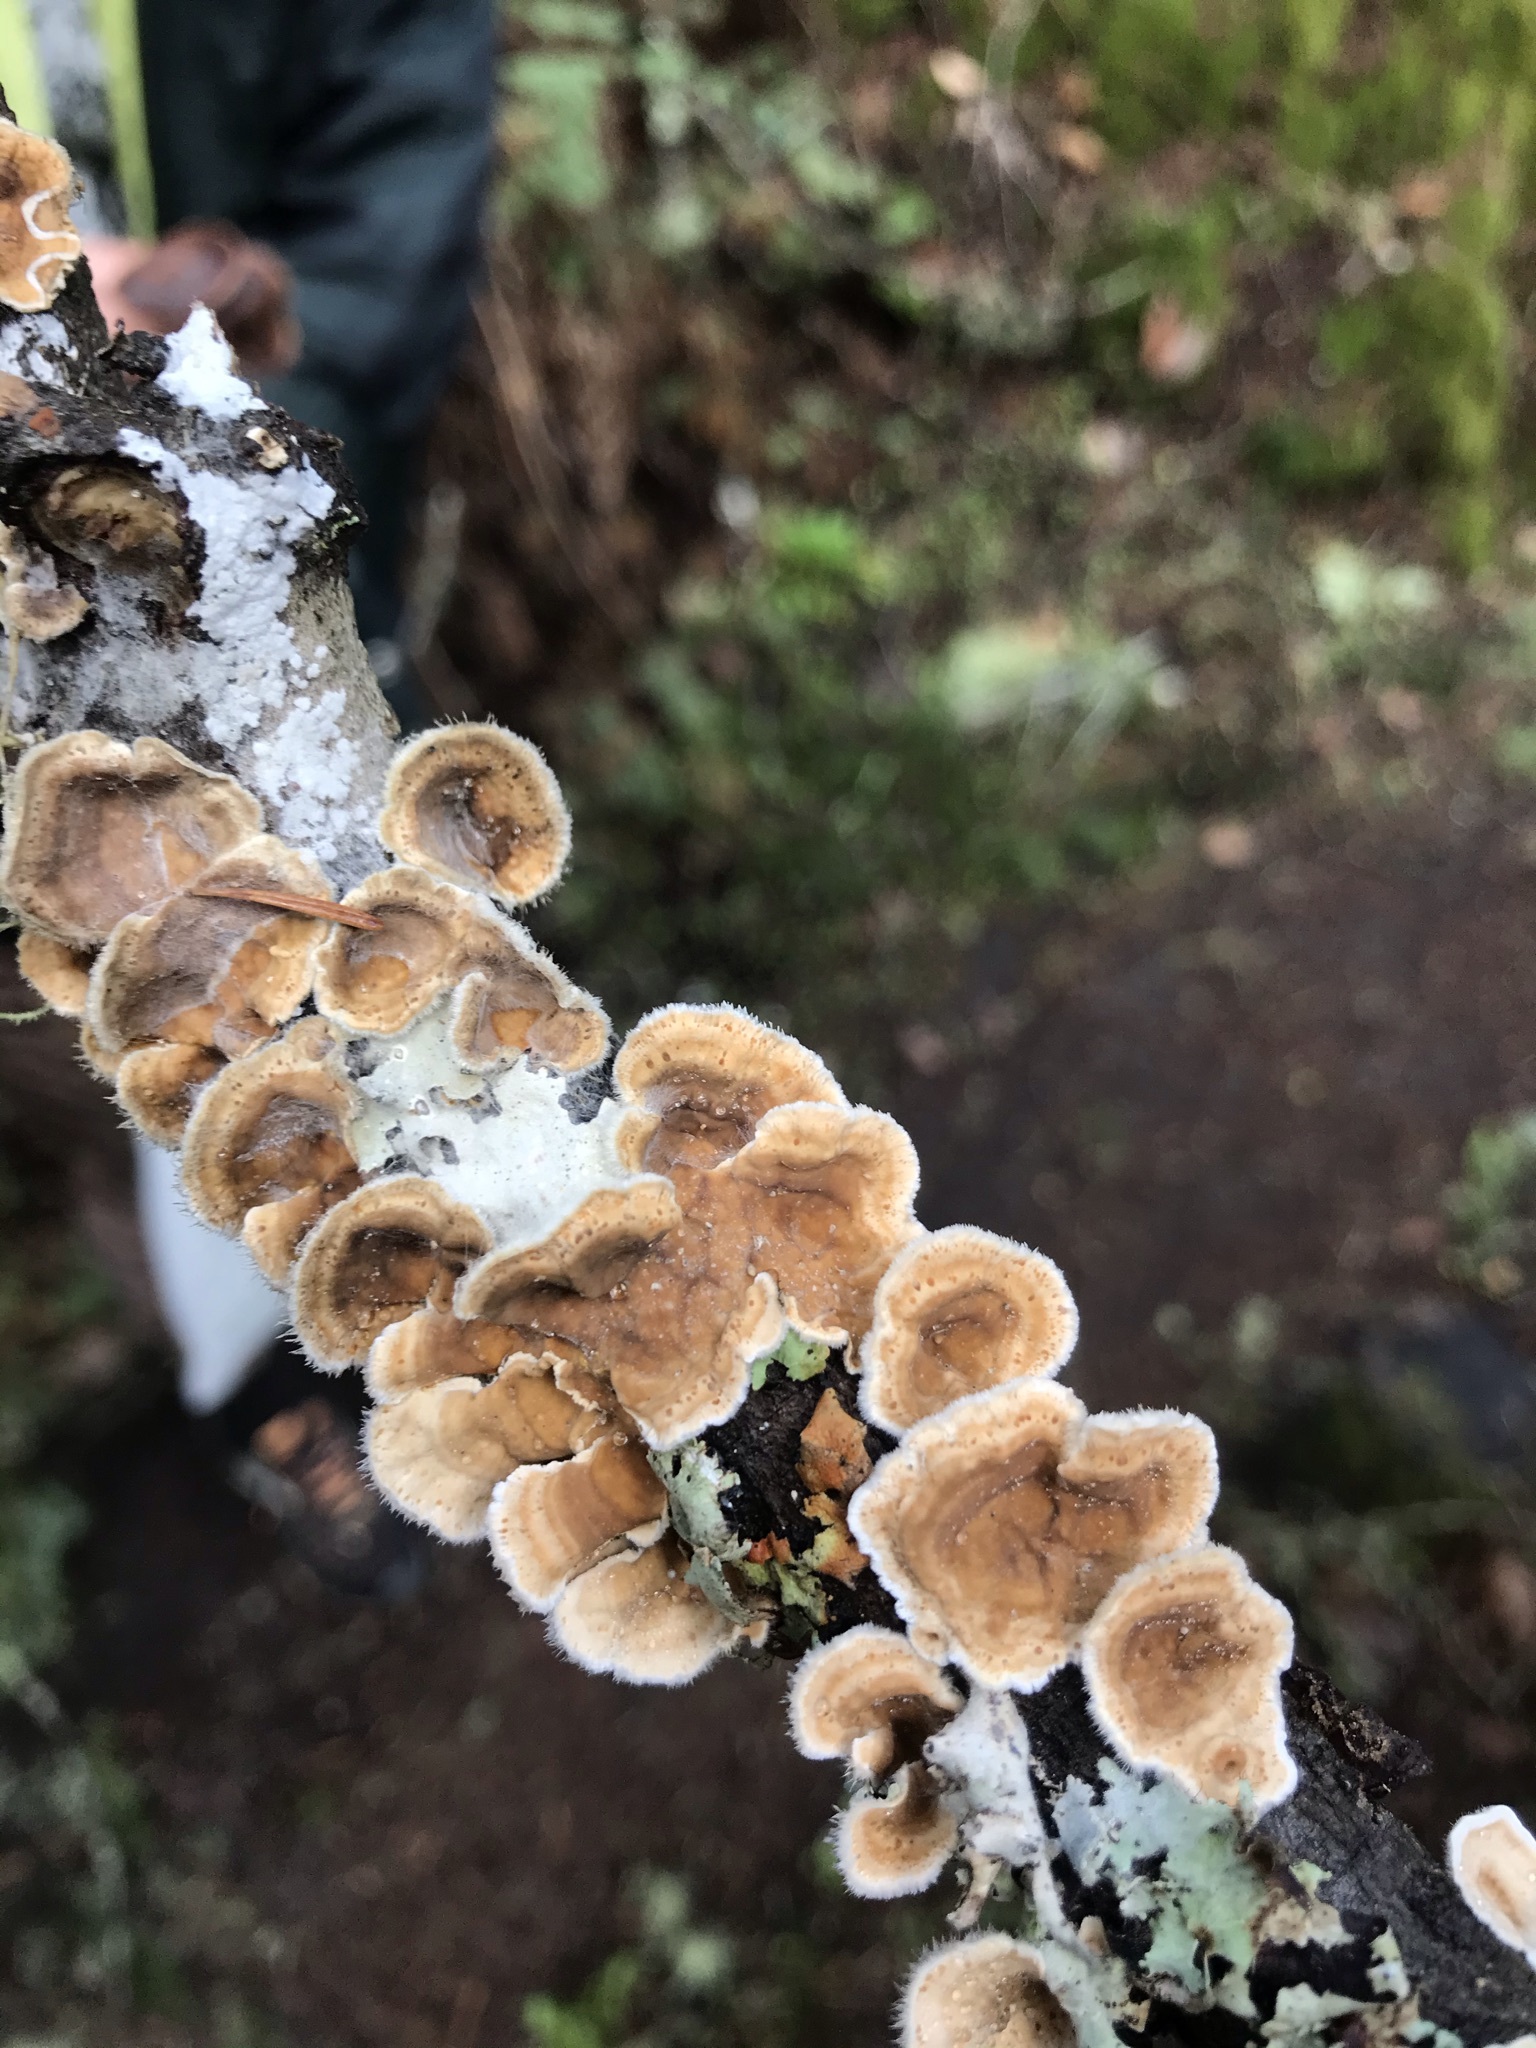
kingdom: Fungi
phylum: Basidiomycota
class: Agaricomycetes
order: Russulales
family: Stereaceae
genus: Stereum
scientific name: Stereum ochraceoflavum
